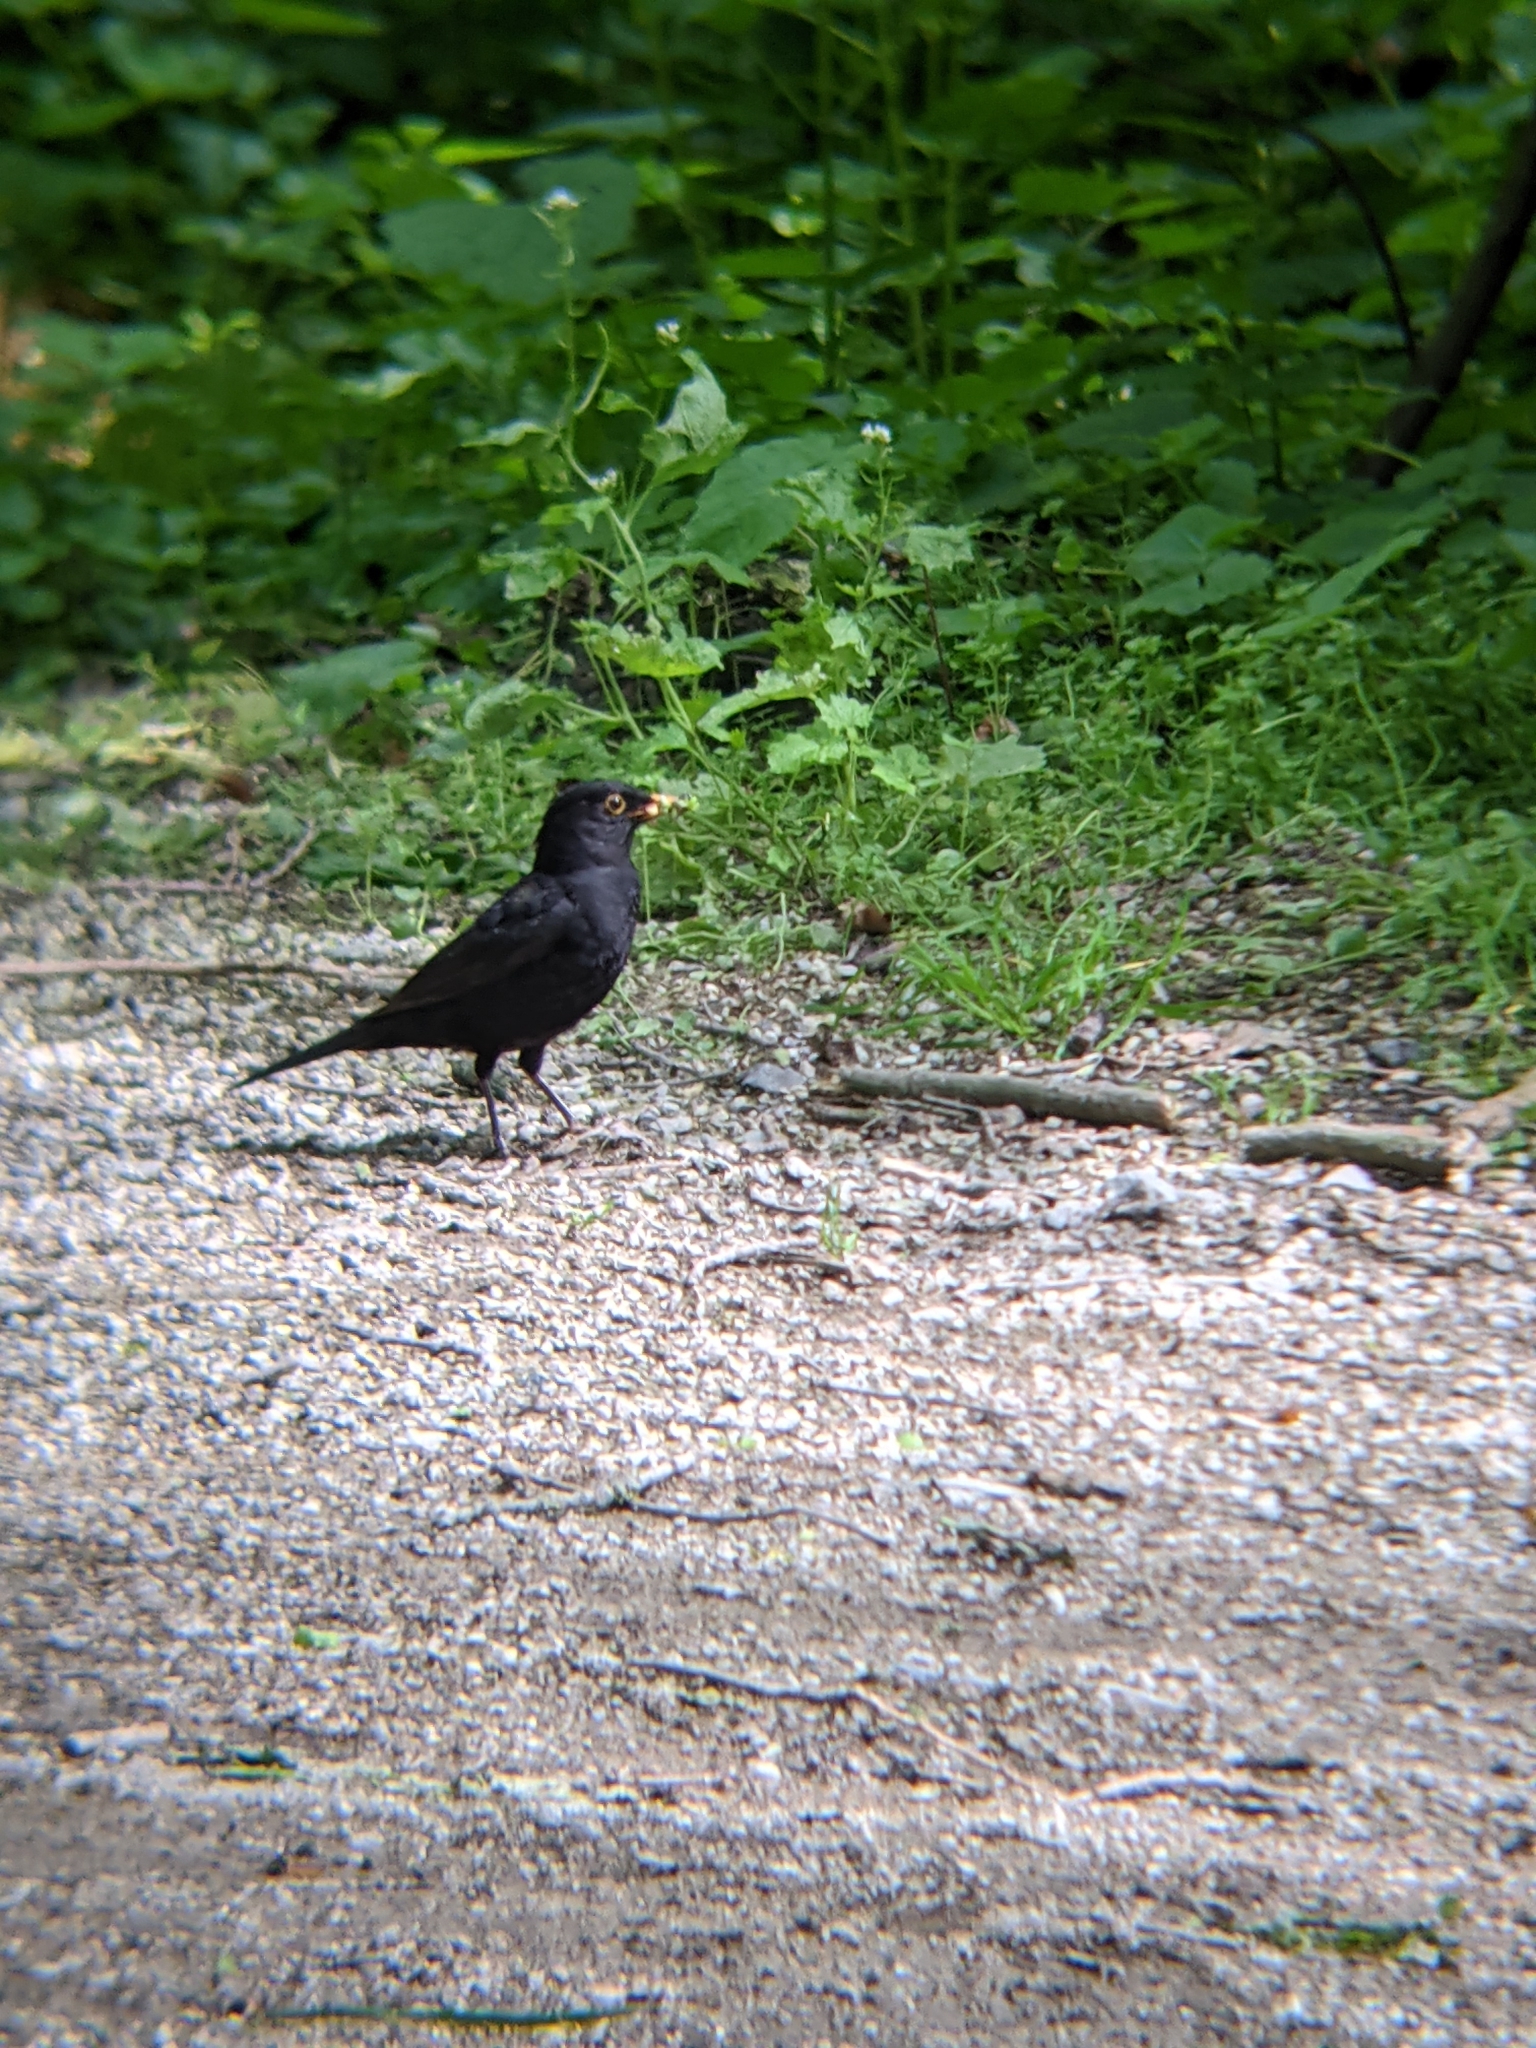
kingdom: Animalia
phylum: Chordata
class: Aves
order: Passeriformes
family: Turdidae
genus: Turdus
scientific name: Turdus merula
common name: Common blackbird
